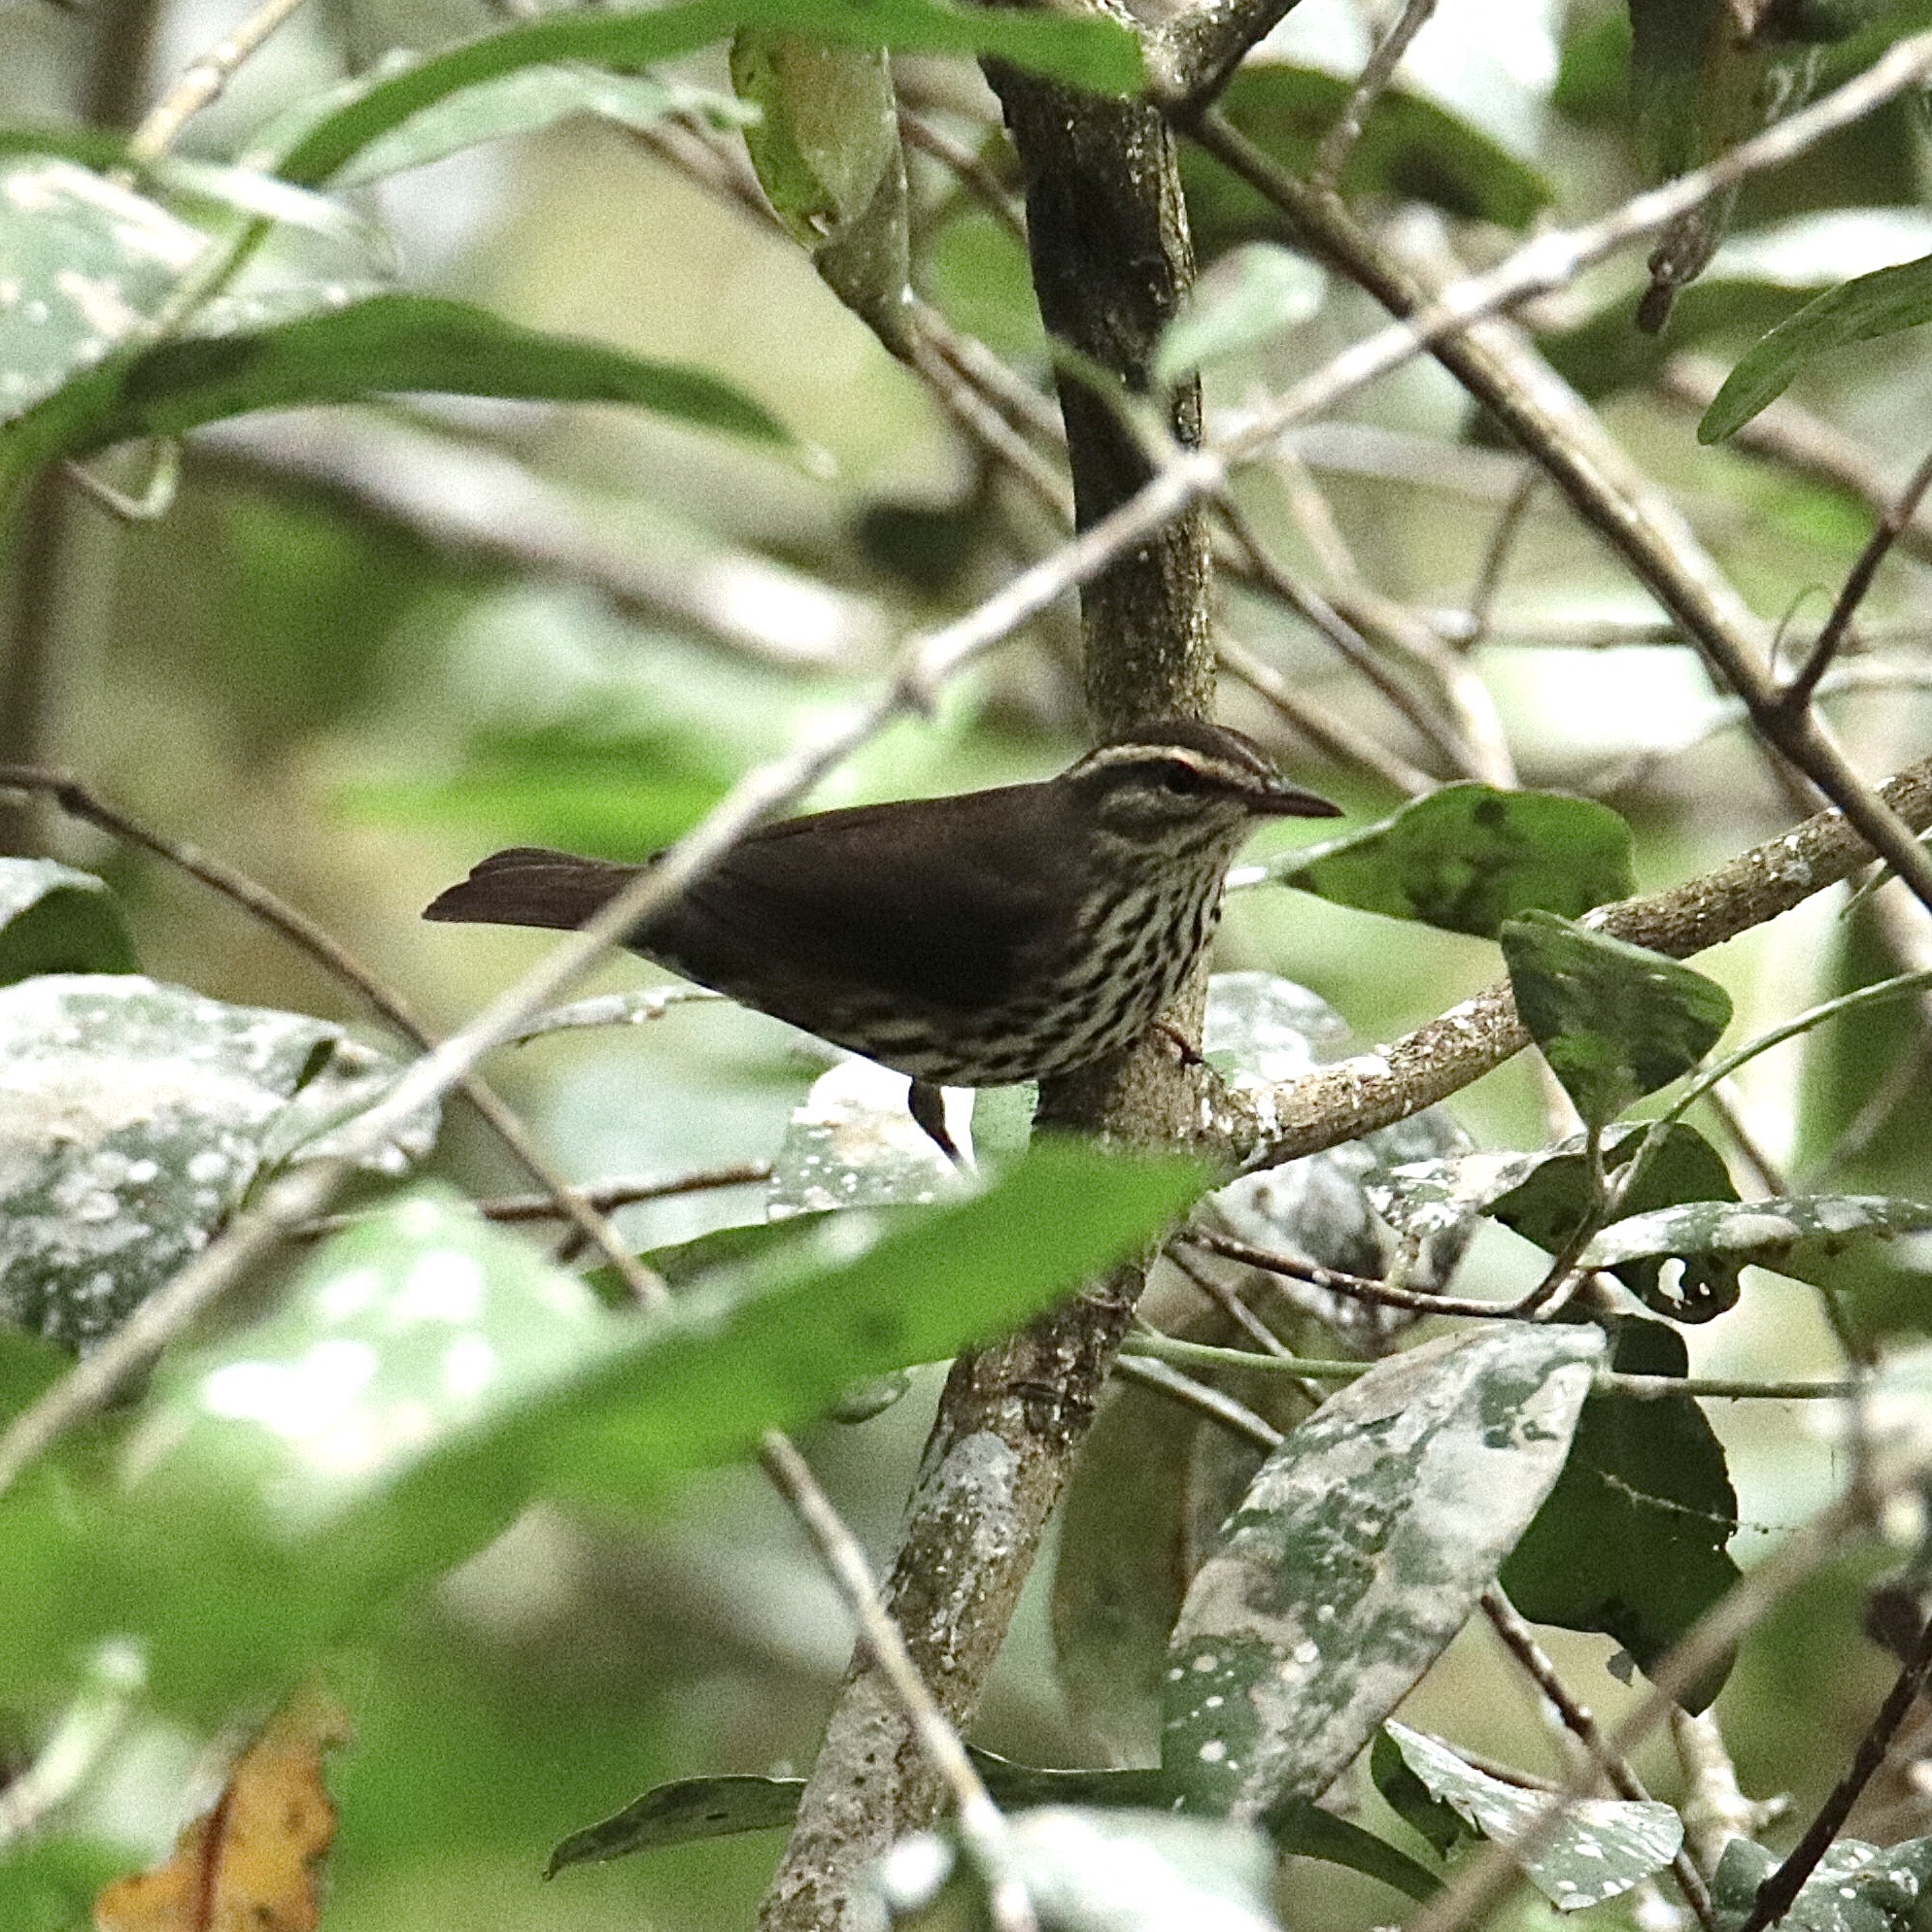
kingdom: Animalia
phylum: Chordata
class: Aves
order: Passeriformes
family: Parulidae
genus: Parkesia
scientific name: Parkesia noveboracensis
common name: Northern waterthrush
